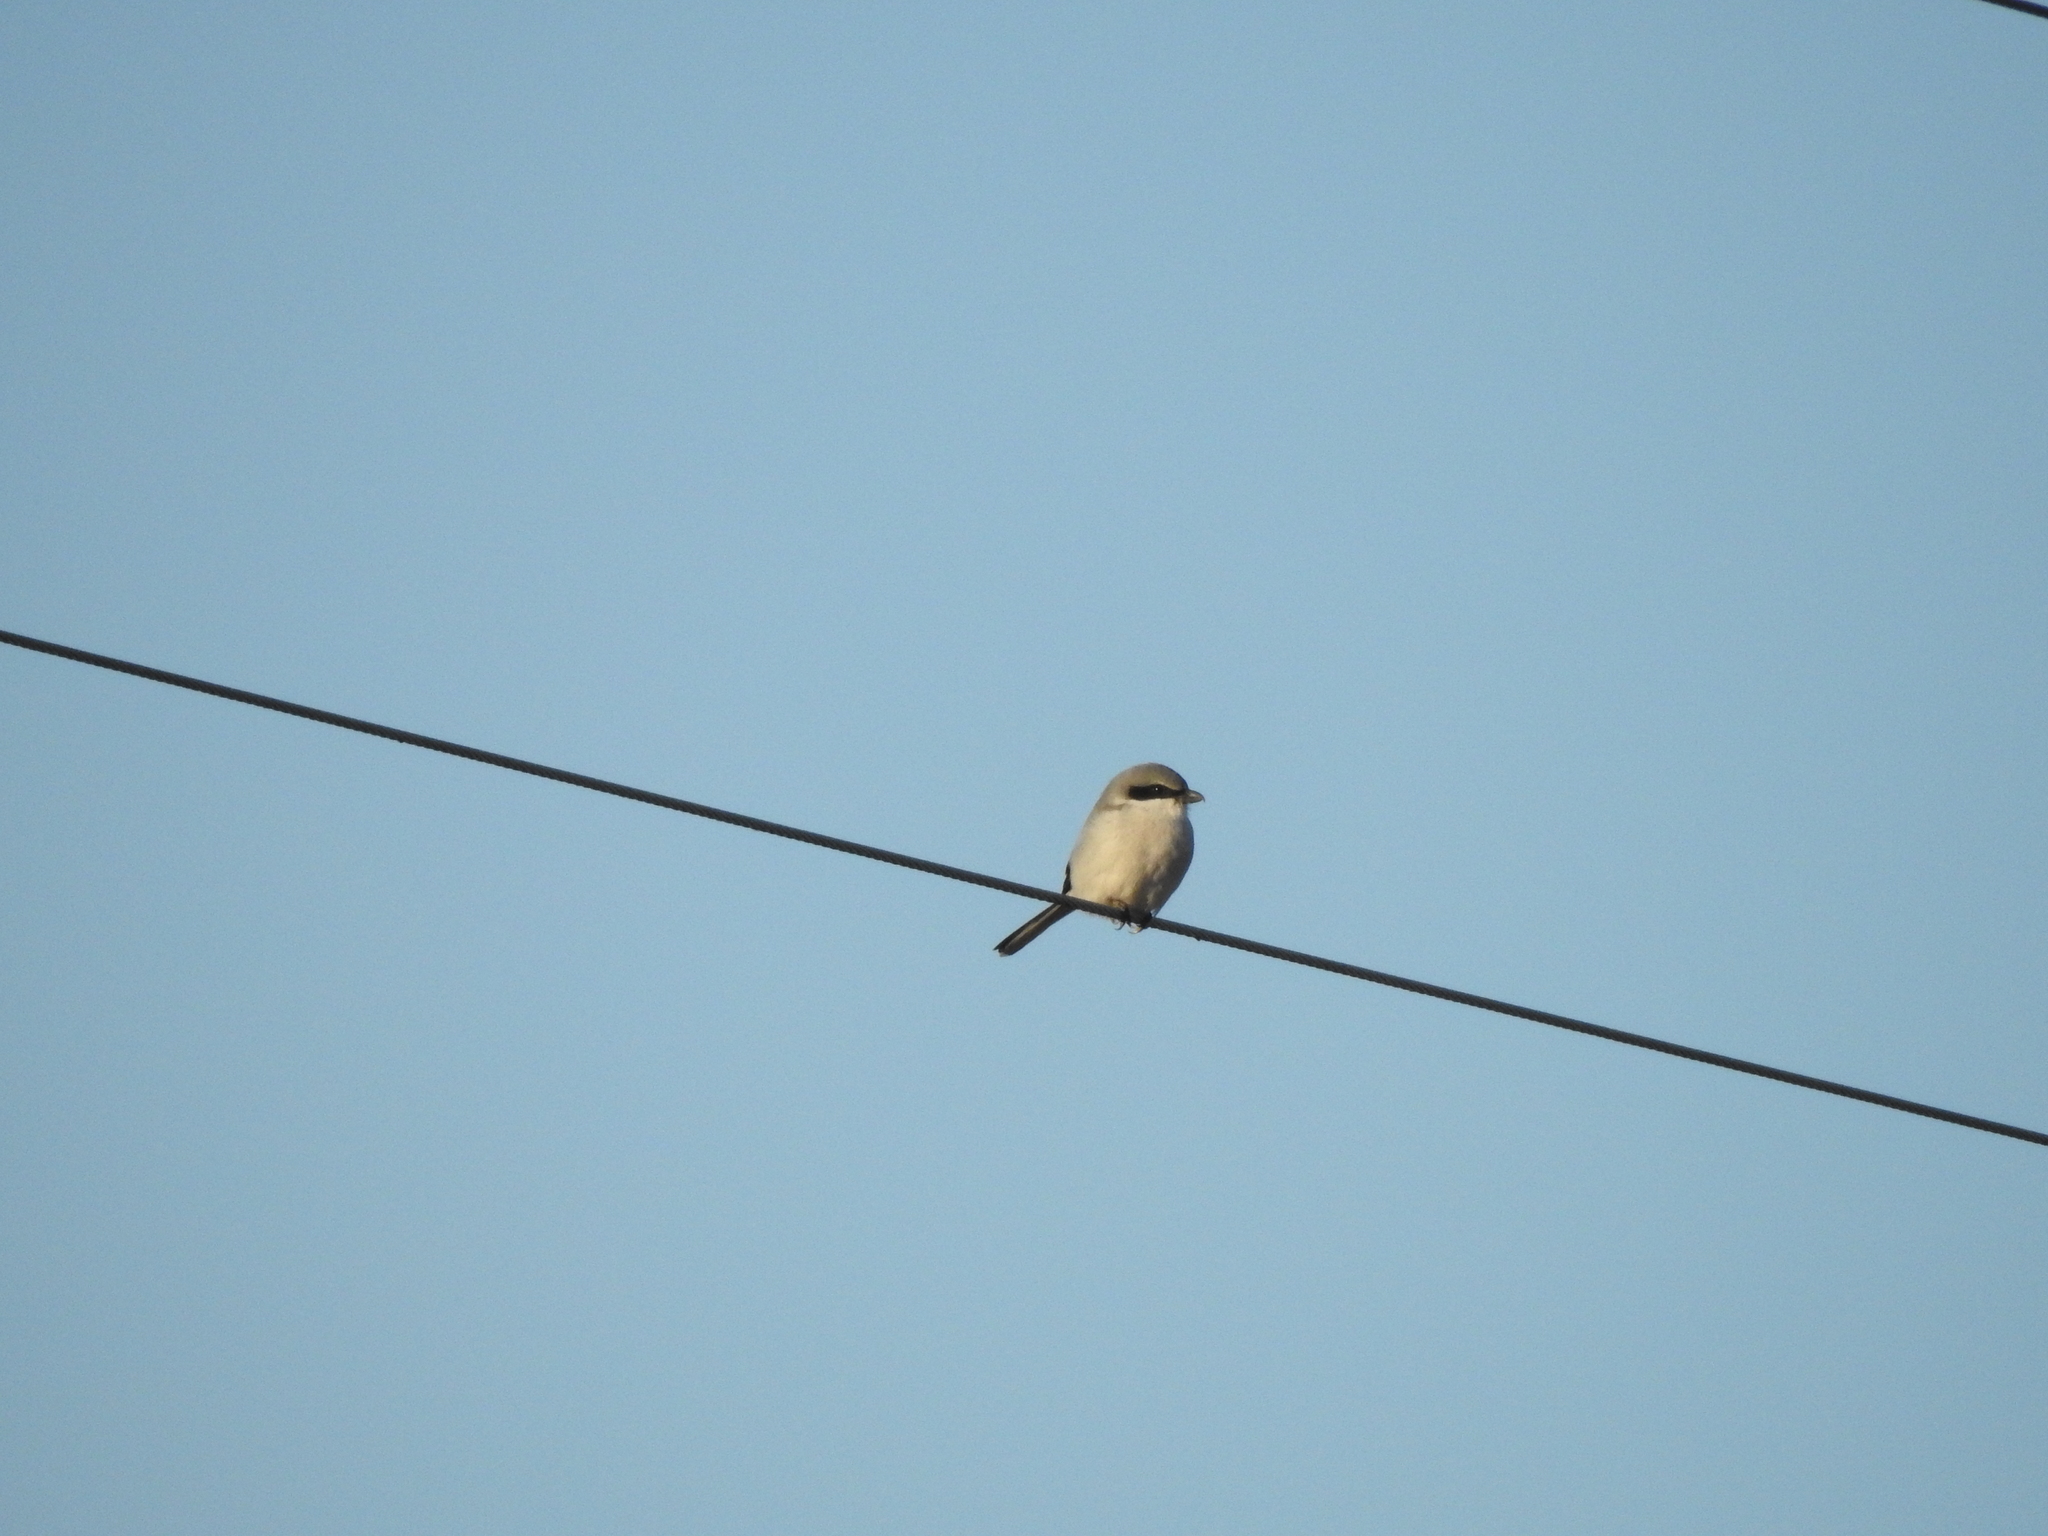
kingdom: Animalia
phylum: Chordata
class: Aves
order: Passeriformes
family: Laniidae
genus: Lanius
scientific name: Lanius ludovicianus
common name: Loggerhead shrike
